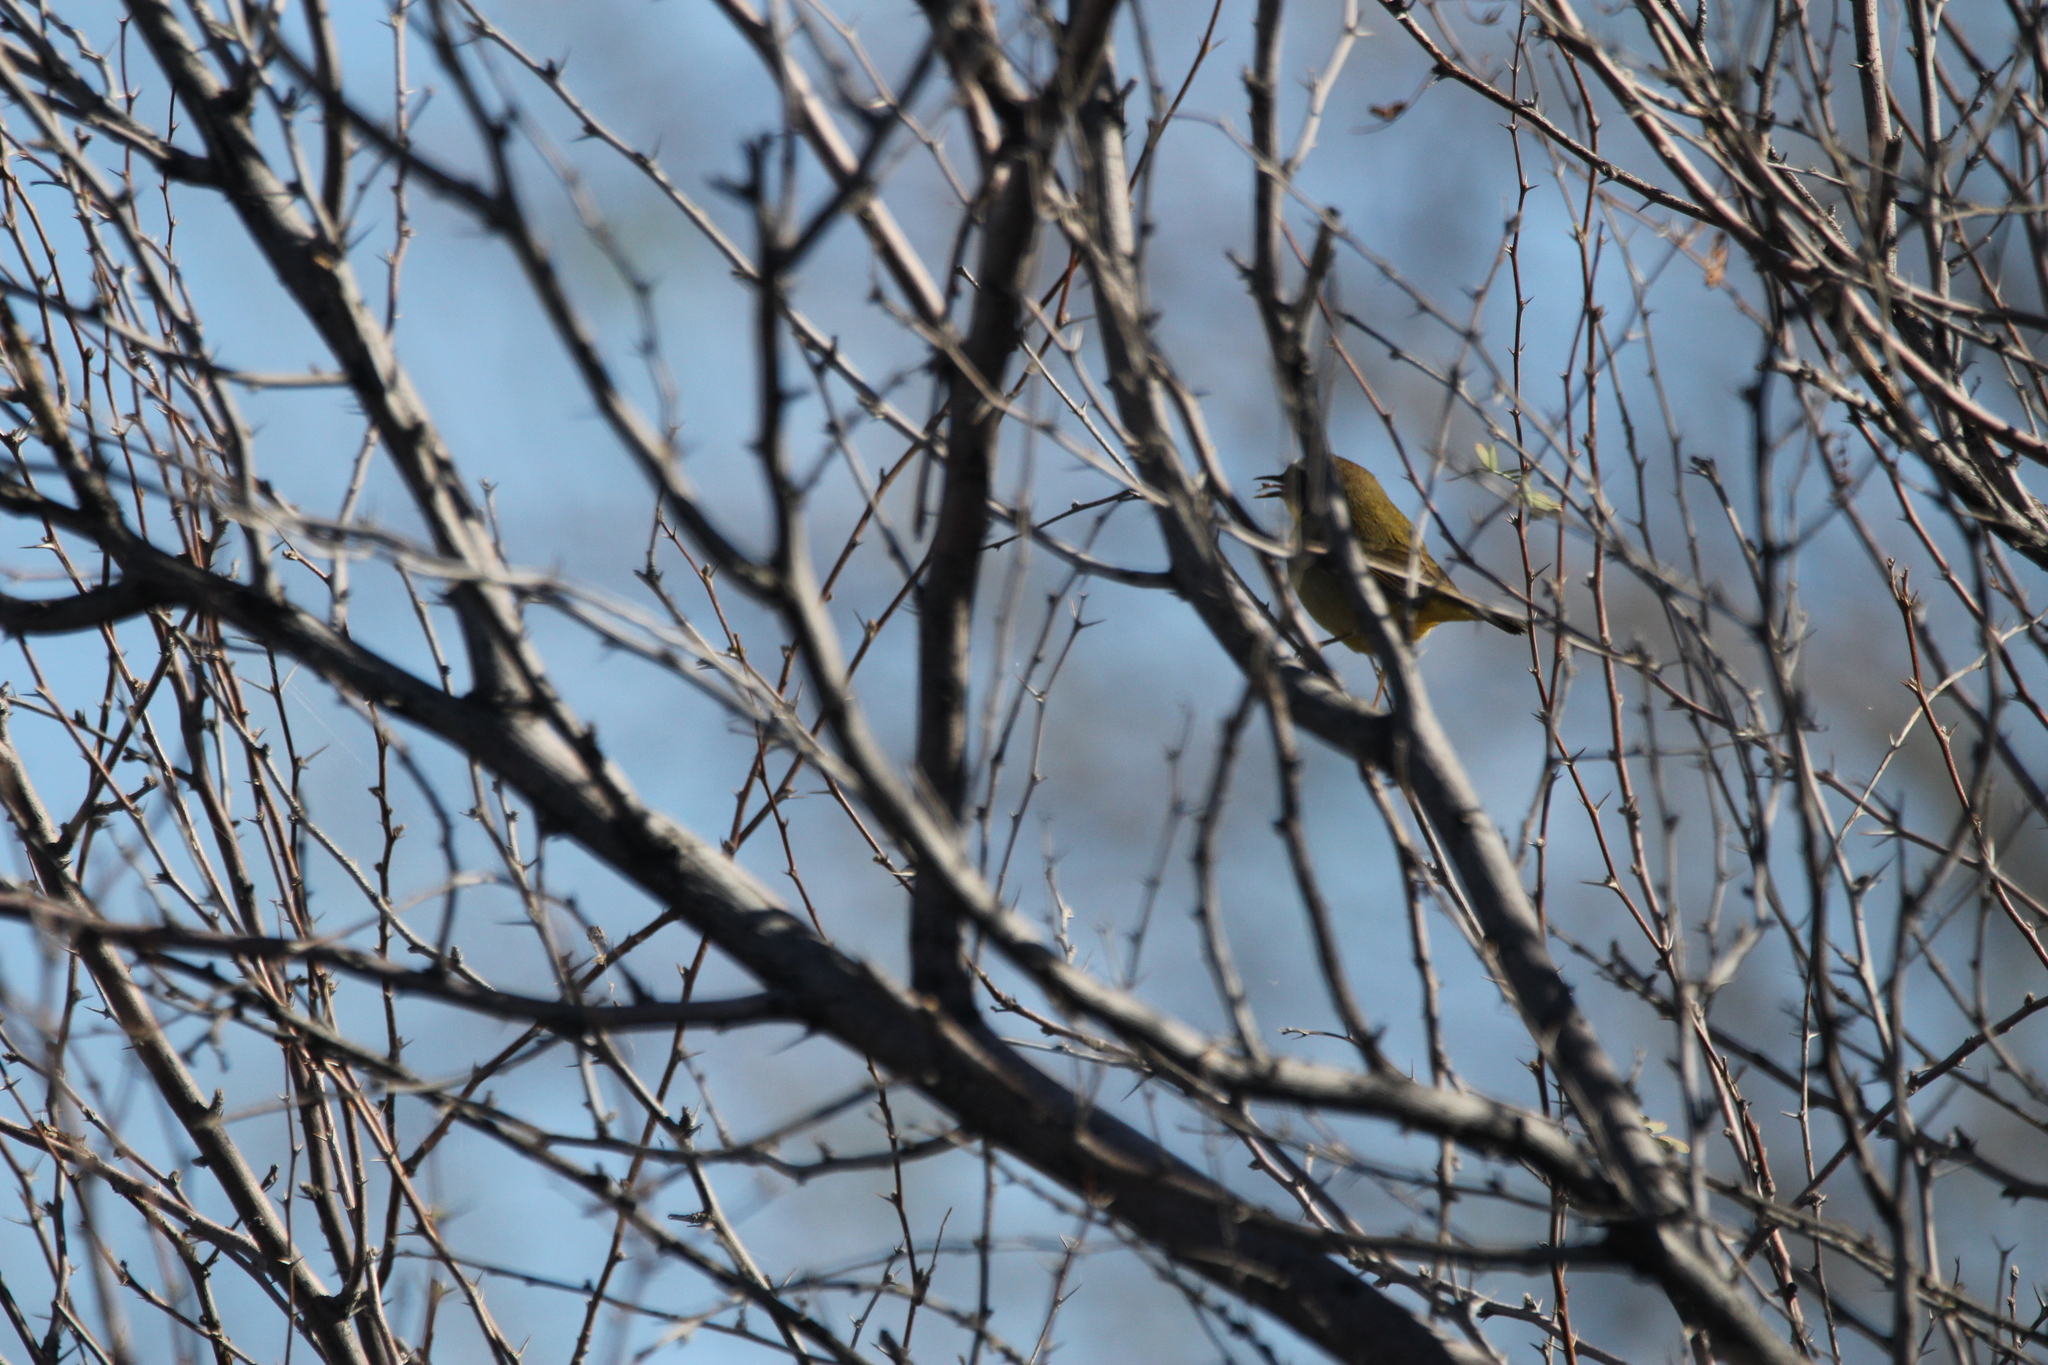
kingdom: Animalia
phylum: Chordata
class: Aves
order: Passeriformes
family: Parulidae
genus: Geothlypis
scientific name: Geothlypis trichas
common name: Common yellowthroat
